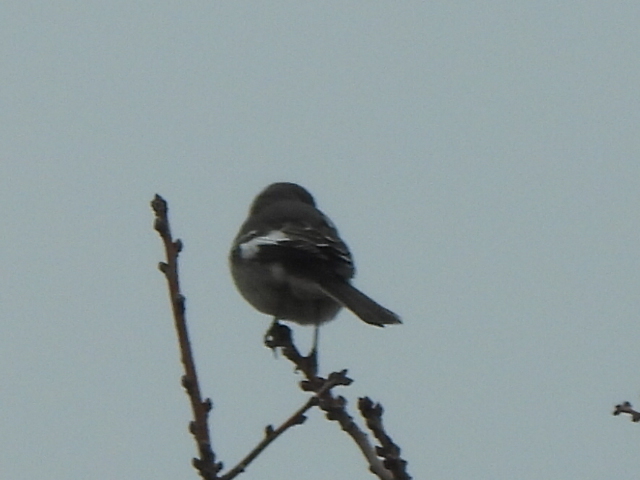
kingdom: Animalia
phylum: Chordata
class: Aves
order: Passeriformes
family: Mimidae
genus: Mimus
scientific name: Mimus polyglottos
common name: Northern mockingbird
